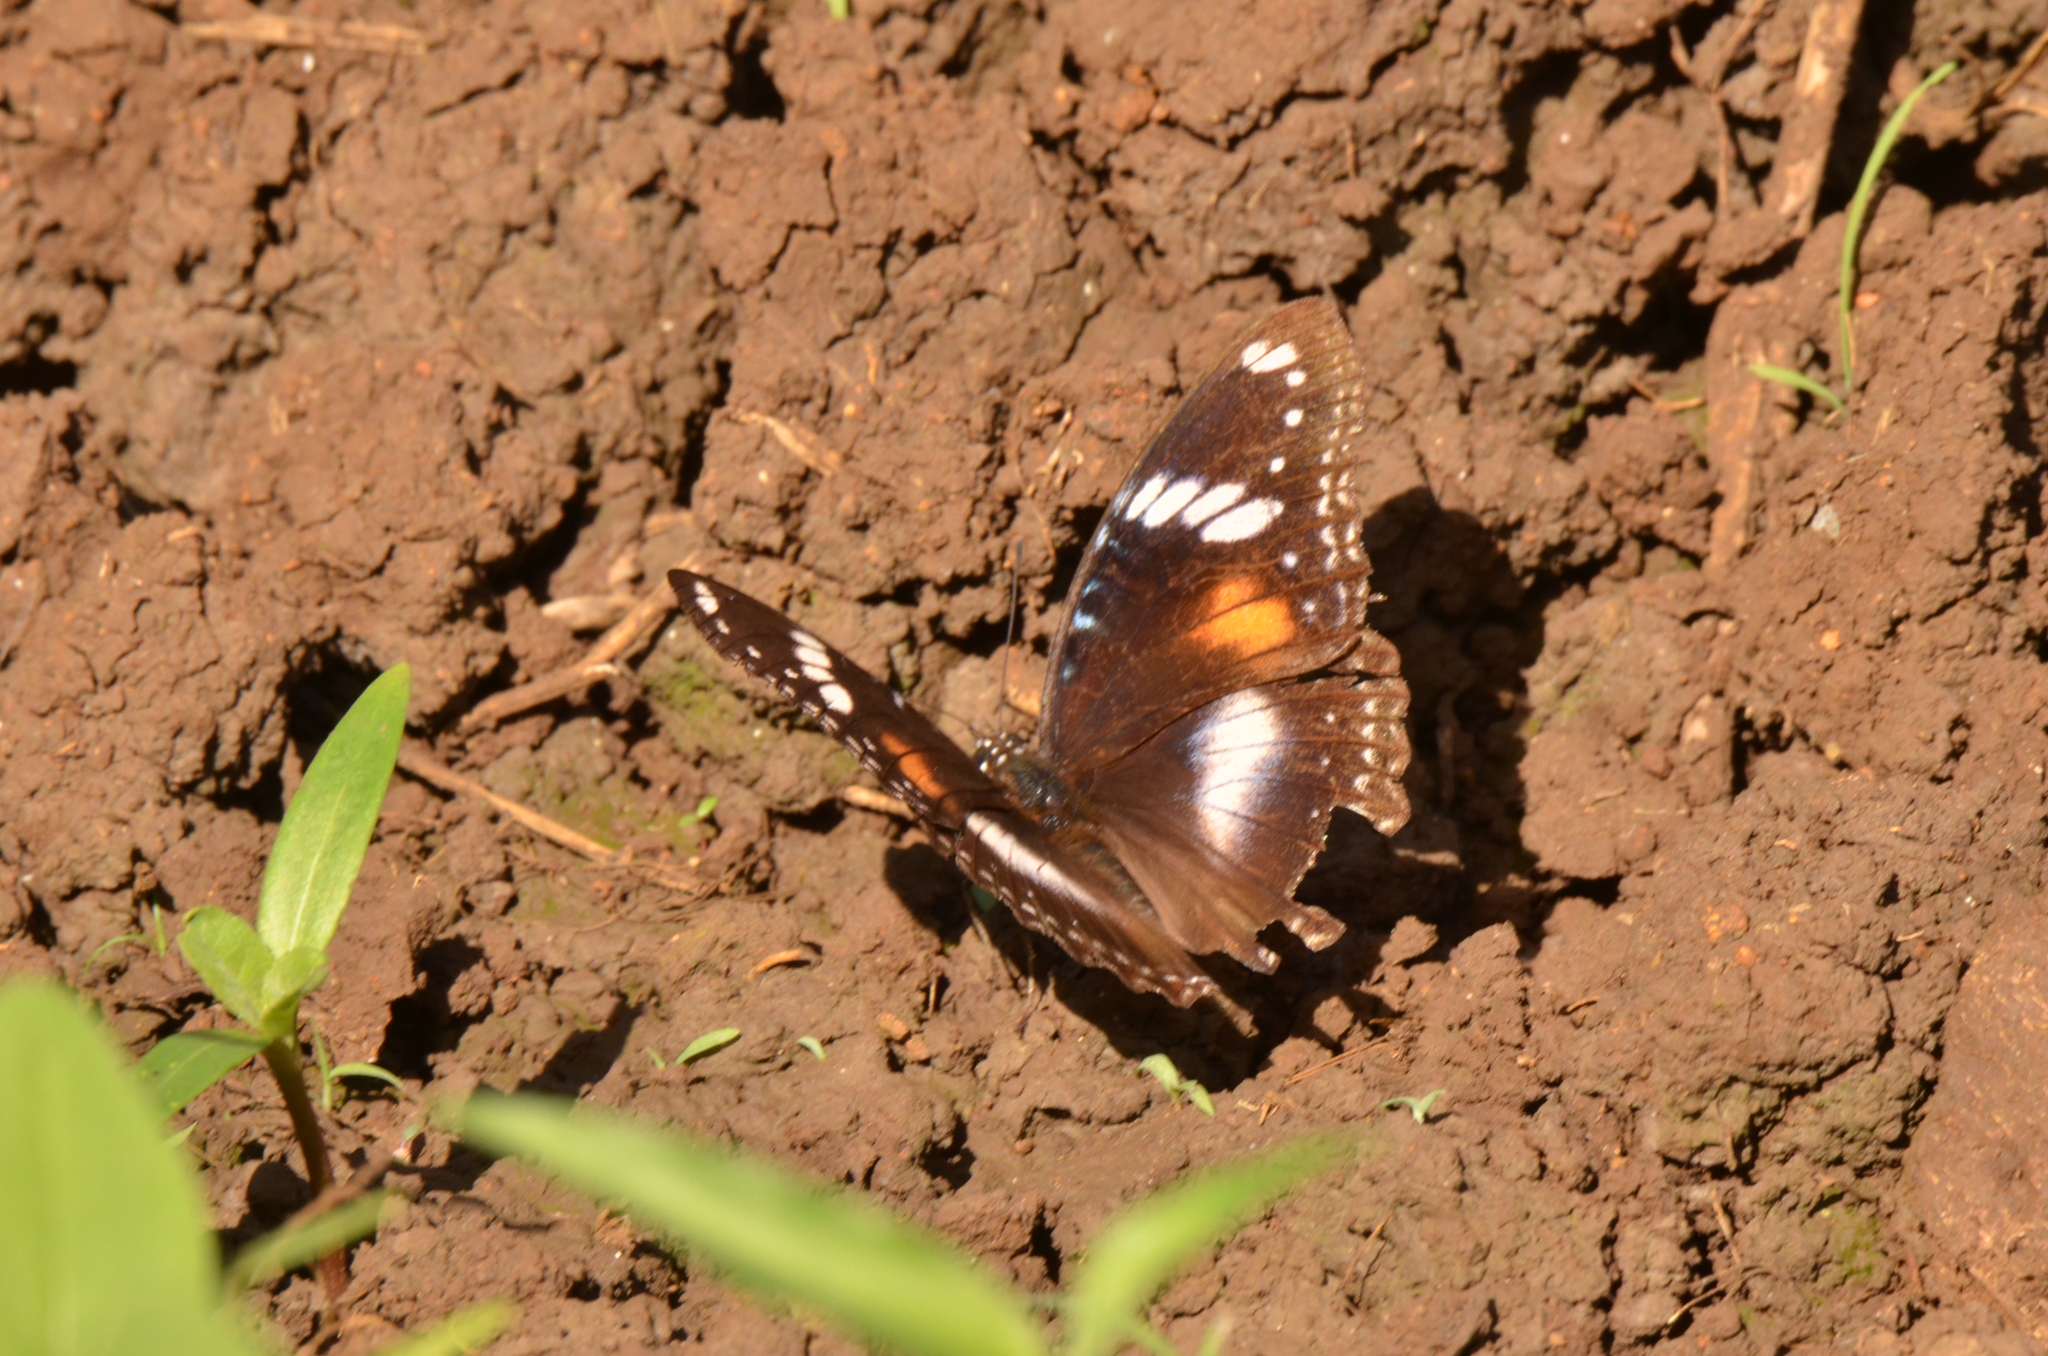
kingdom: Animalia
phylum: Arthropoda
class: Insecta
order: Lepidoptera
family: Nymphalidae
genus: Hypolimnas
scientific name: Hypolimnas bolina
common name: Great eggfly
